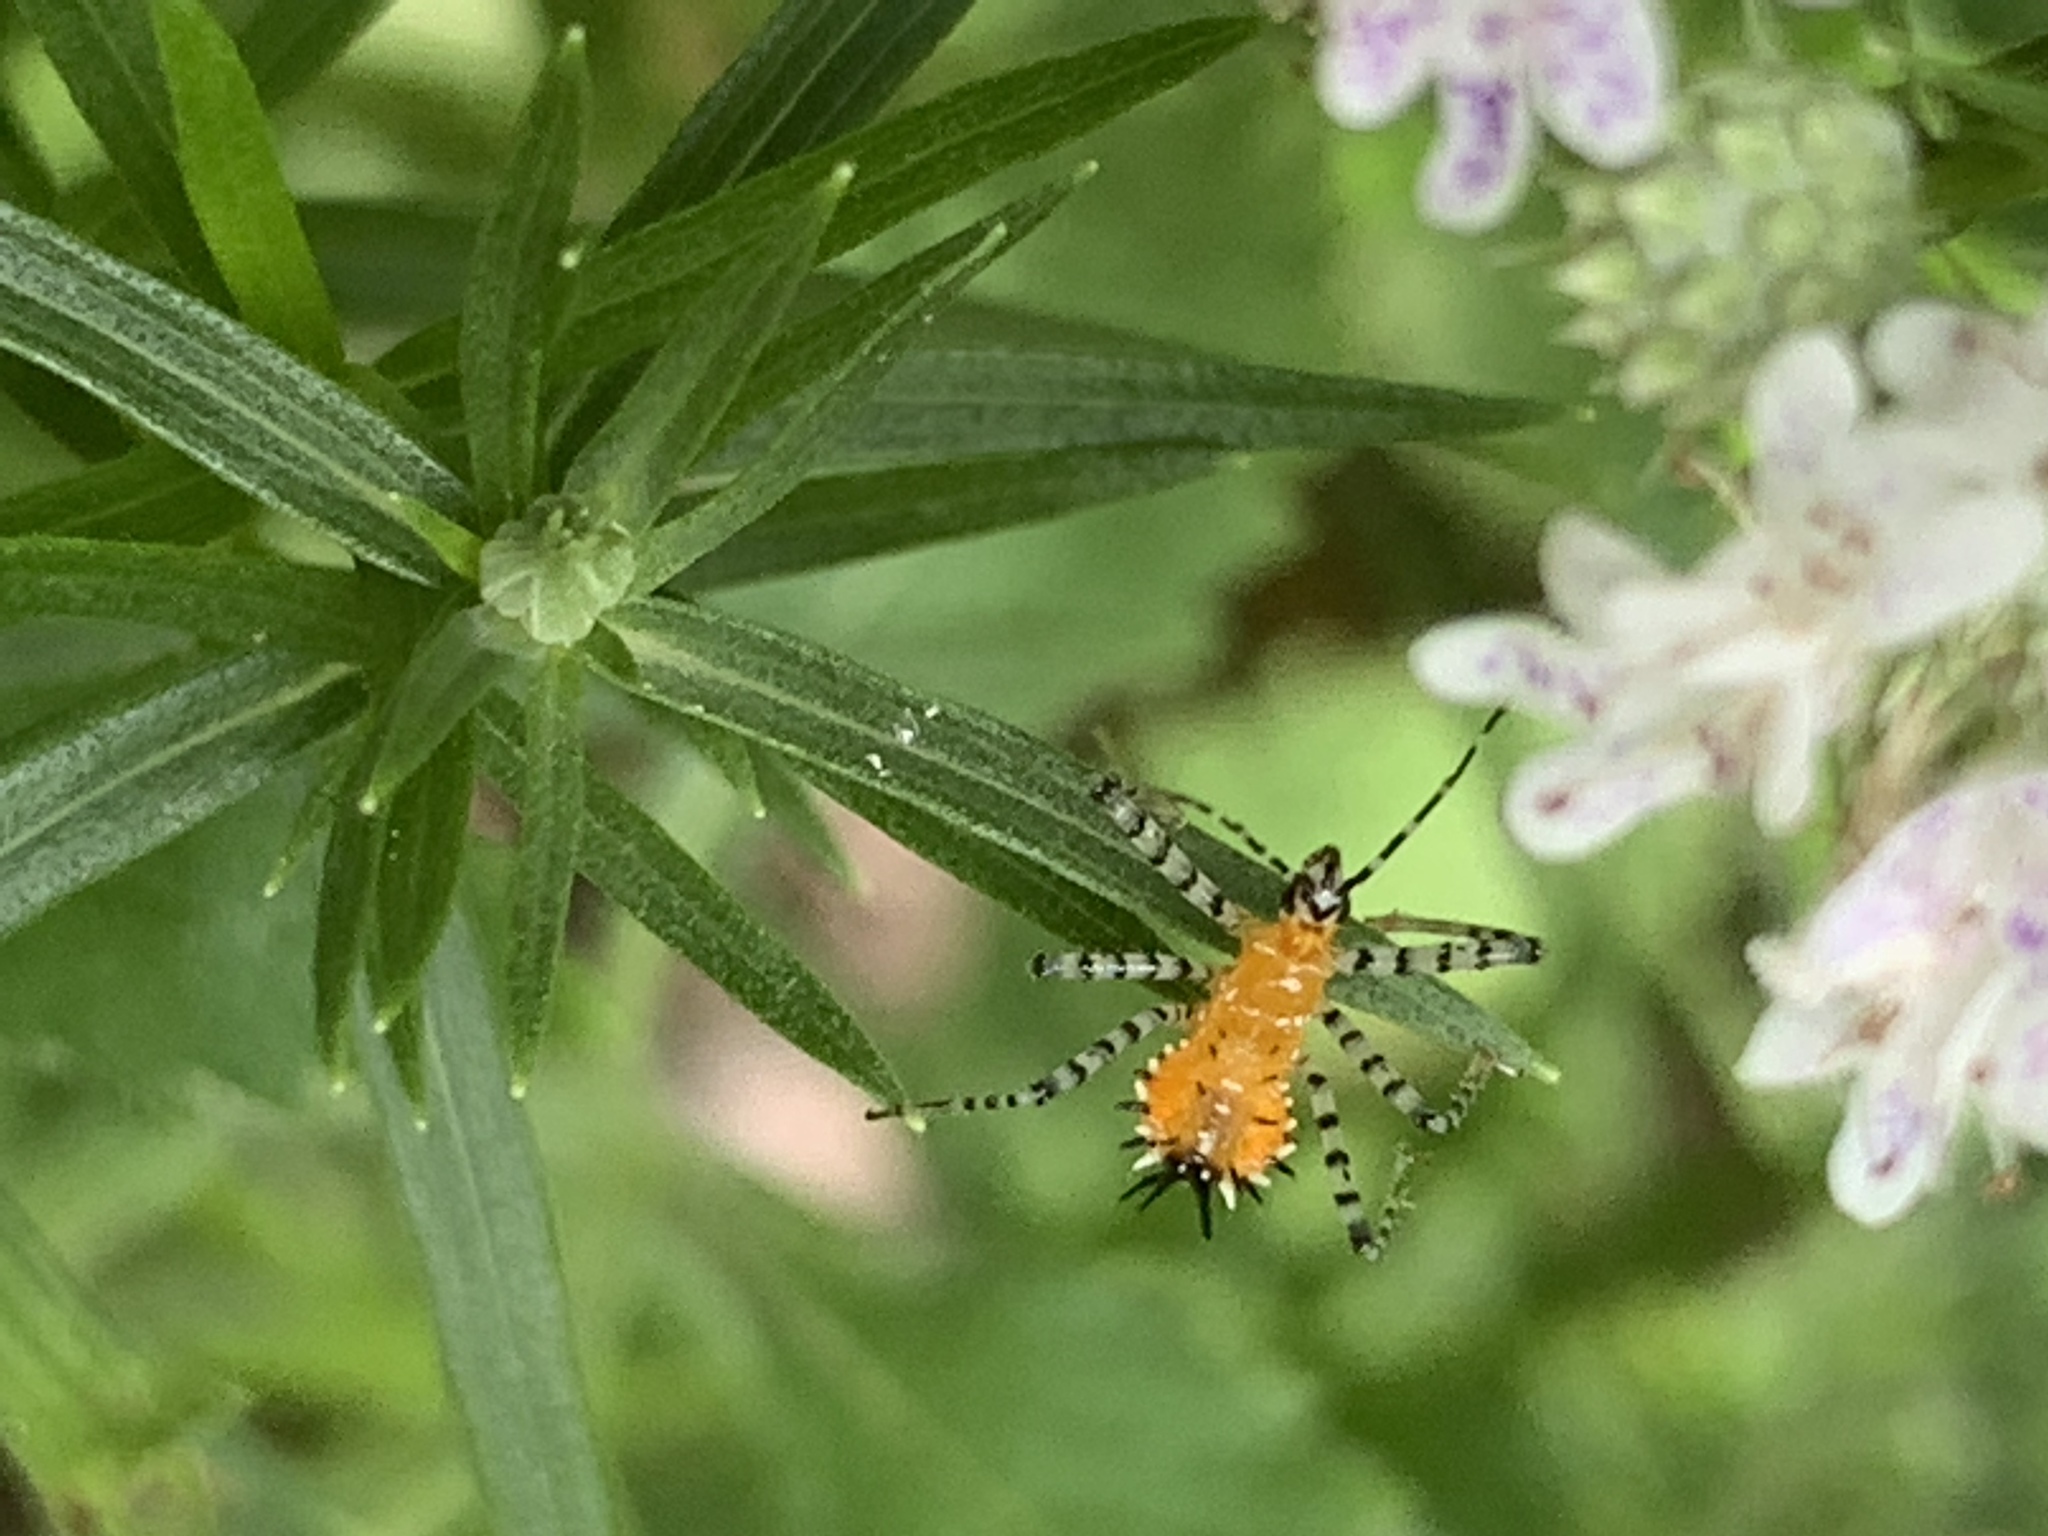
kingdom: Animalia
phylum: Arthropoda
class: Insecta
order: Hemiptera
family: Reduviidae
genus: Pselliopus
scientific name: Pselliopus cinctus
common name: Ringed assassin bug
